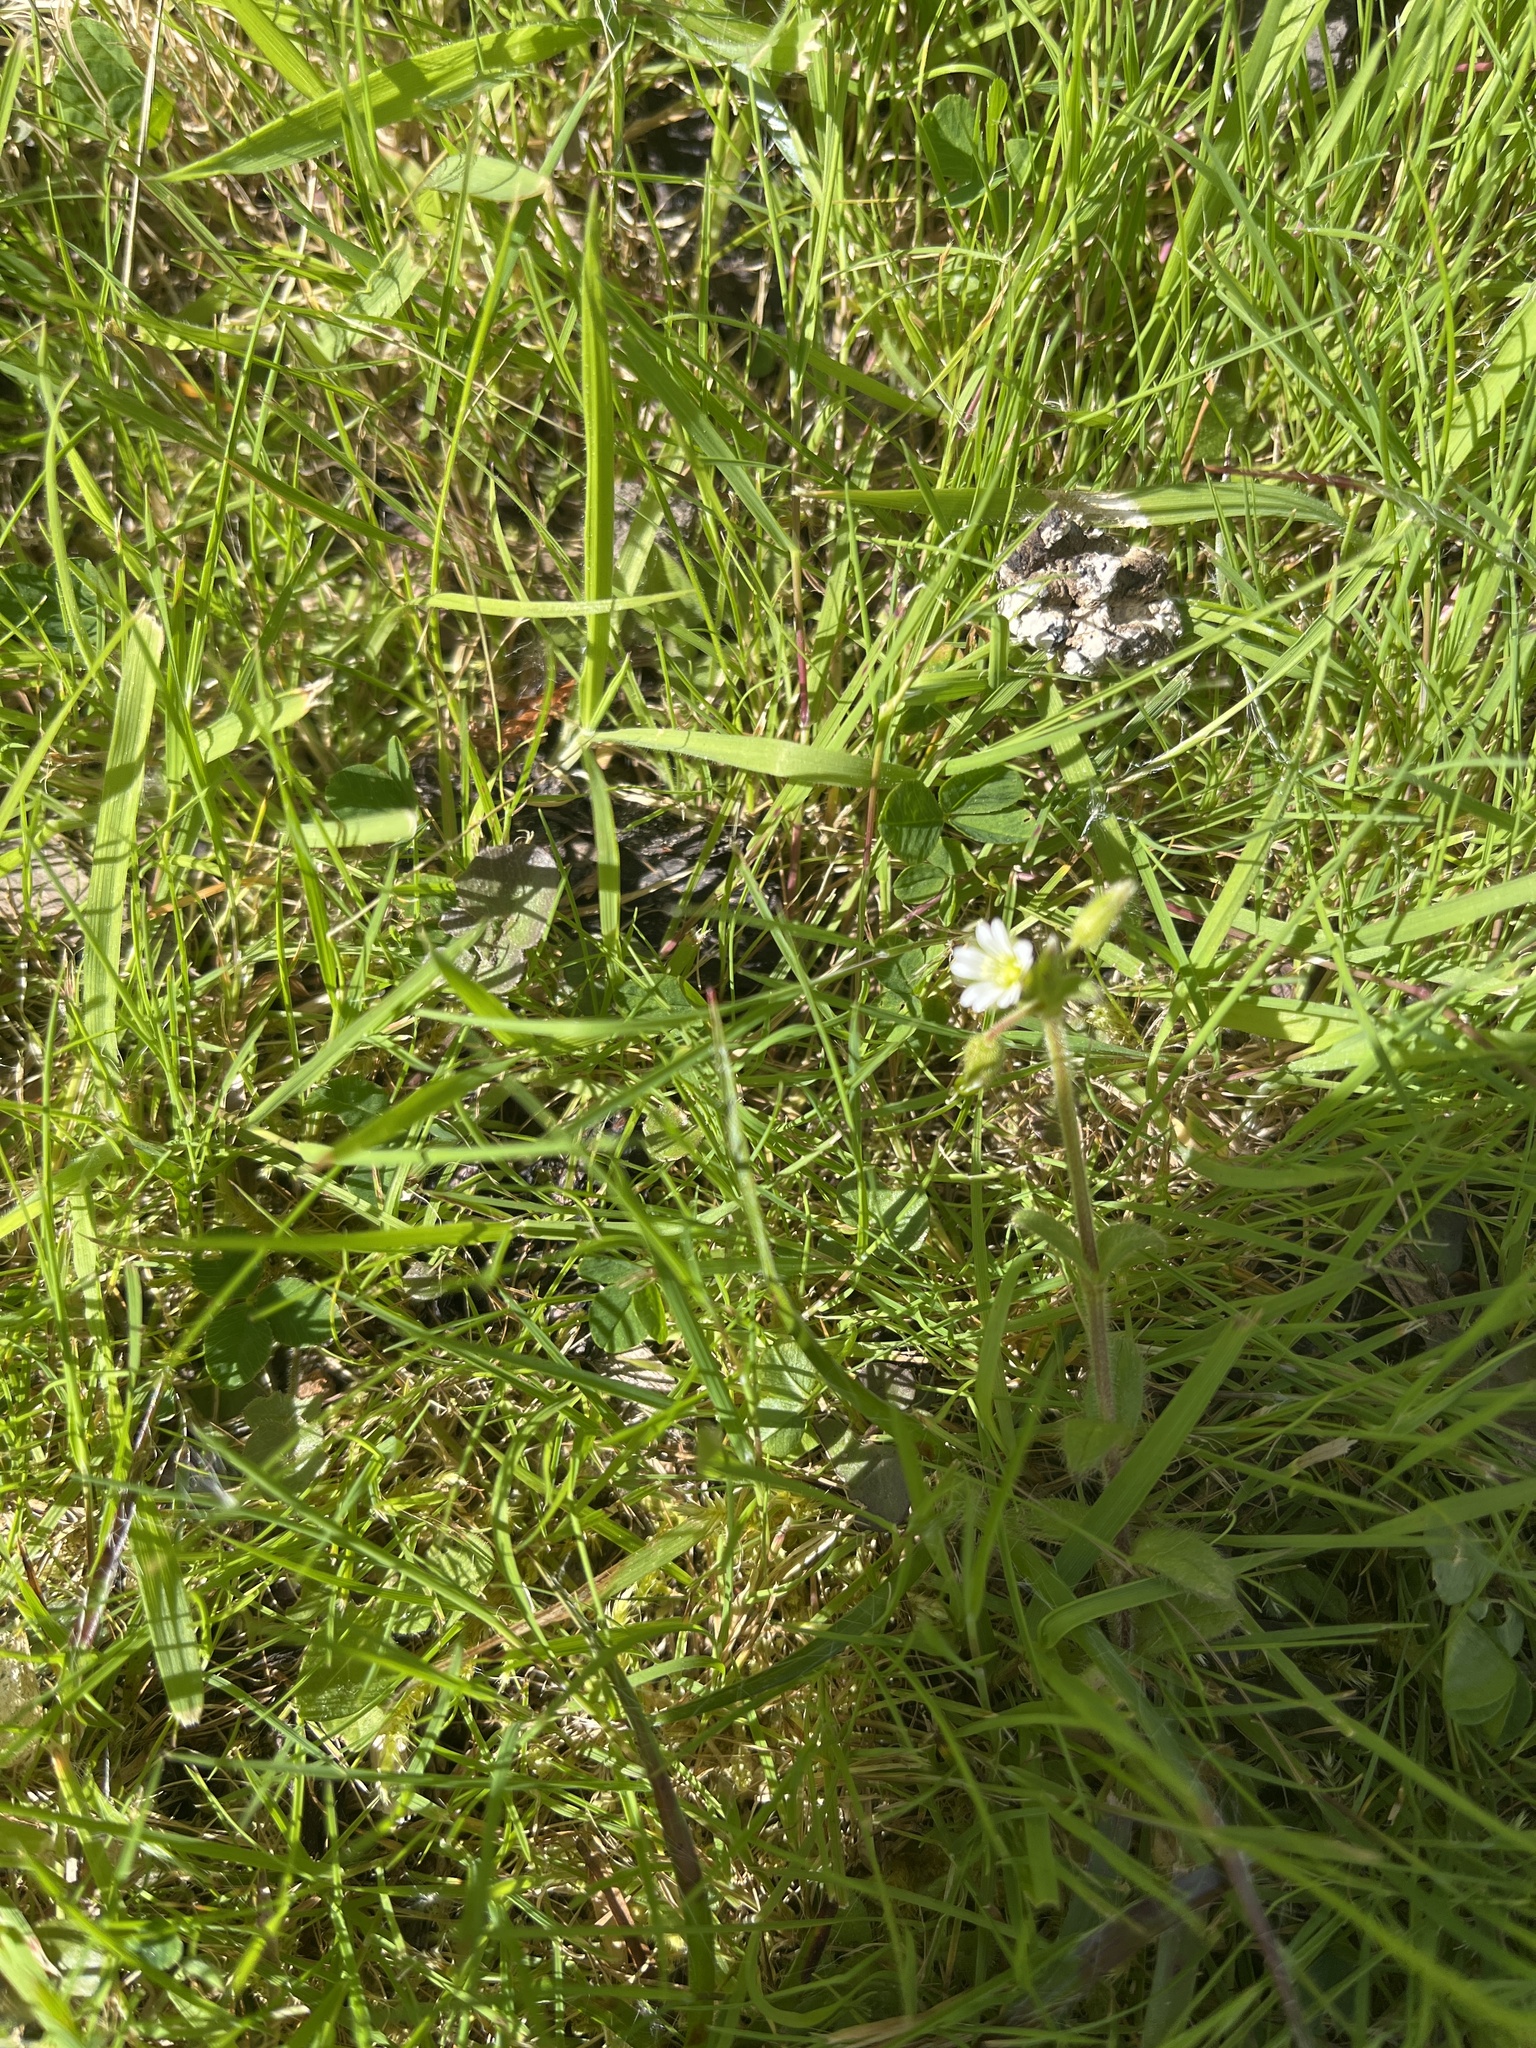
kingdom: Plantae
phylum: Tracheophyta
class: Magnoliopsida
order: Caryophyllales
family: Caryophyllaceae
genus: Cerastium
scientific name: Cerastium fontanum
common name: Common mouse-ear
